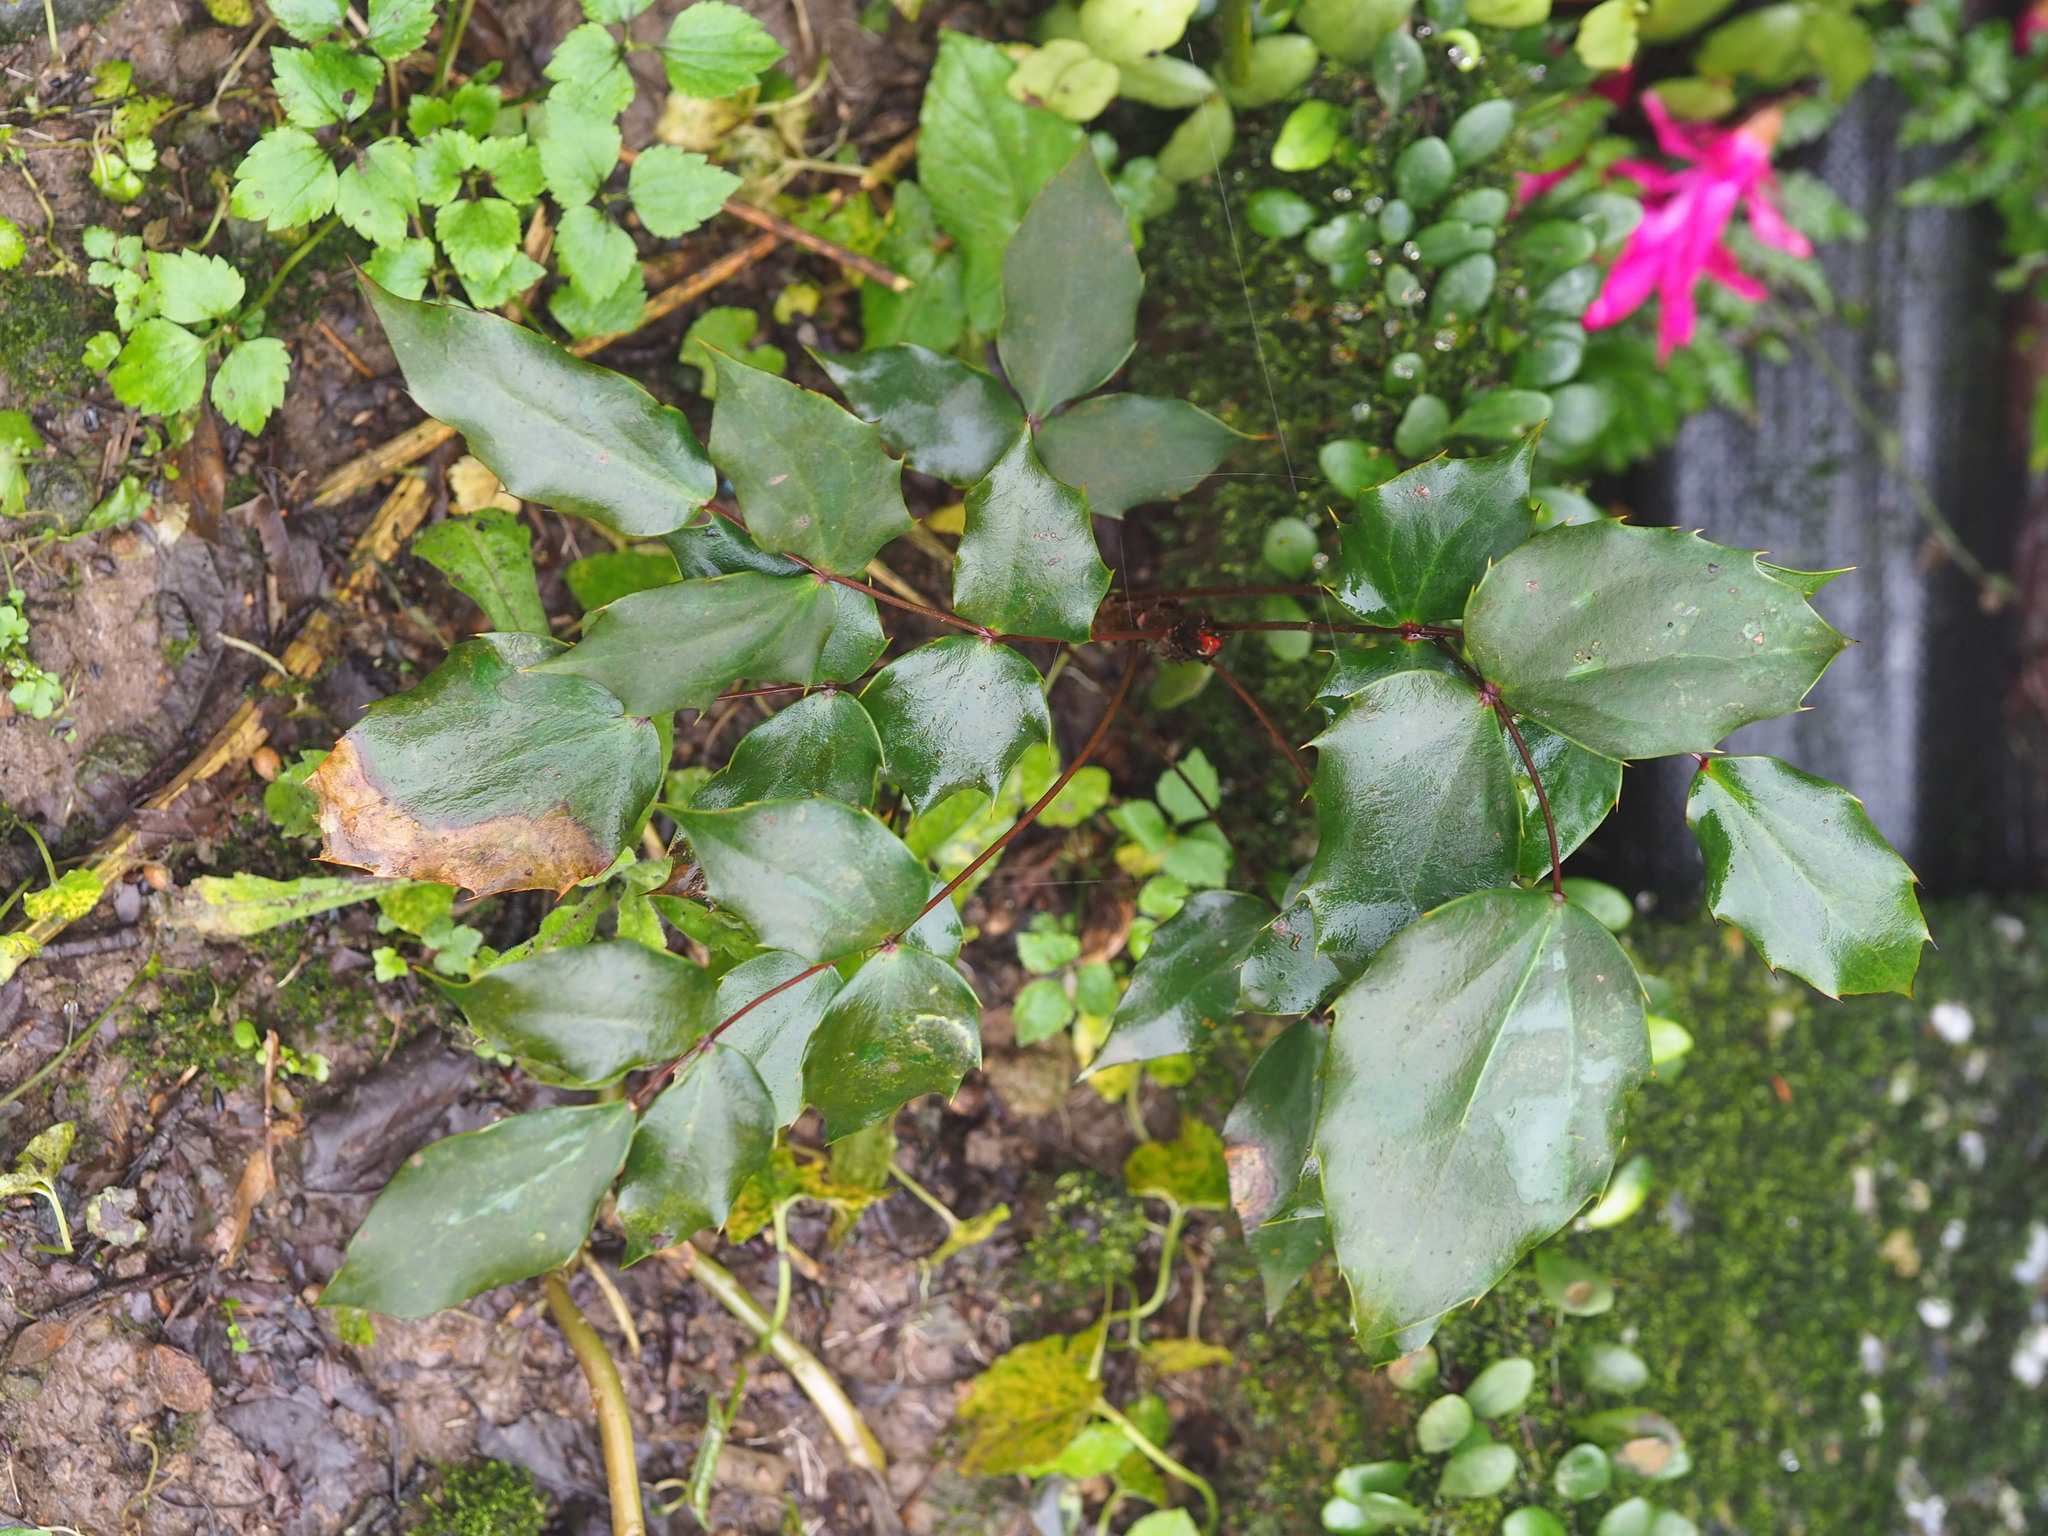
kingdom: Plantae
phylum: Tracheophyta
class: Magnoliopsida
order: Ranunculales
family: Berberidaceae
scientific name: Berberidaceae
